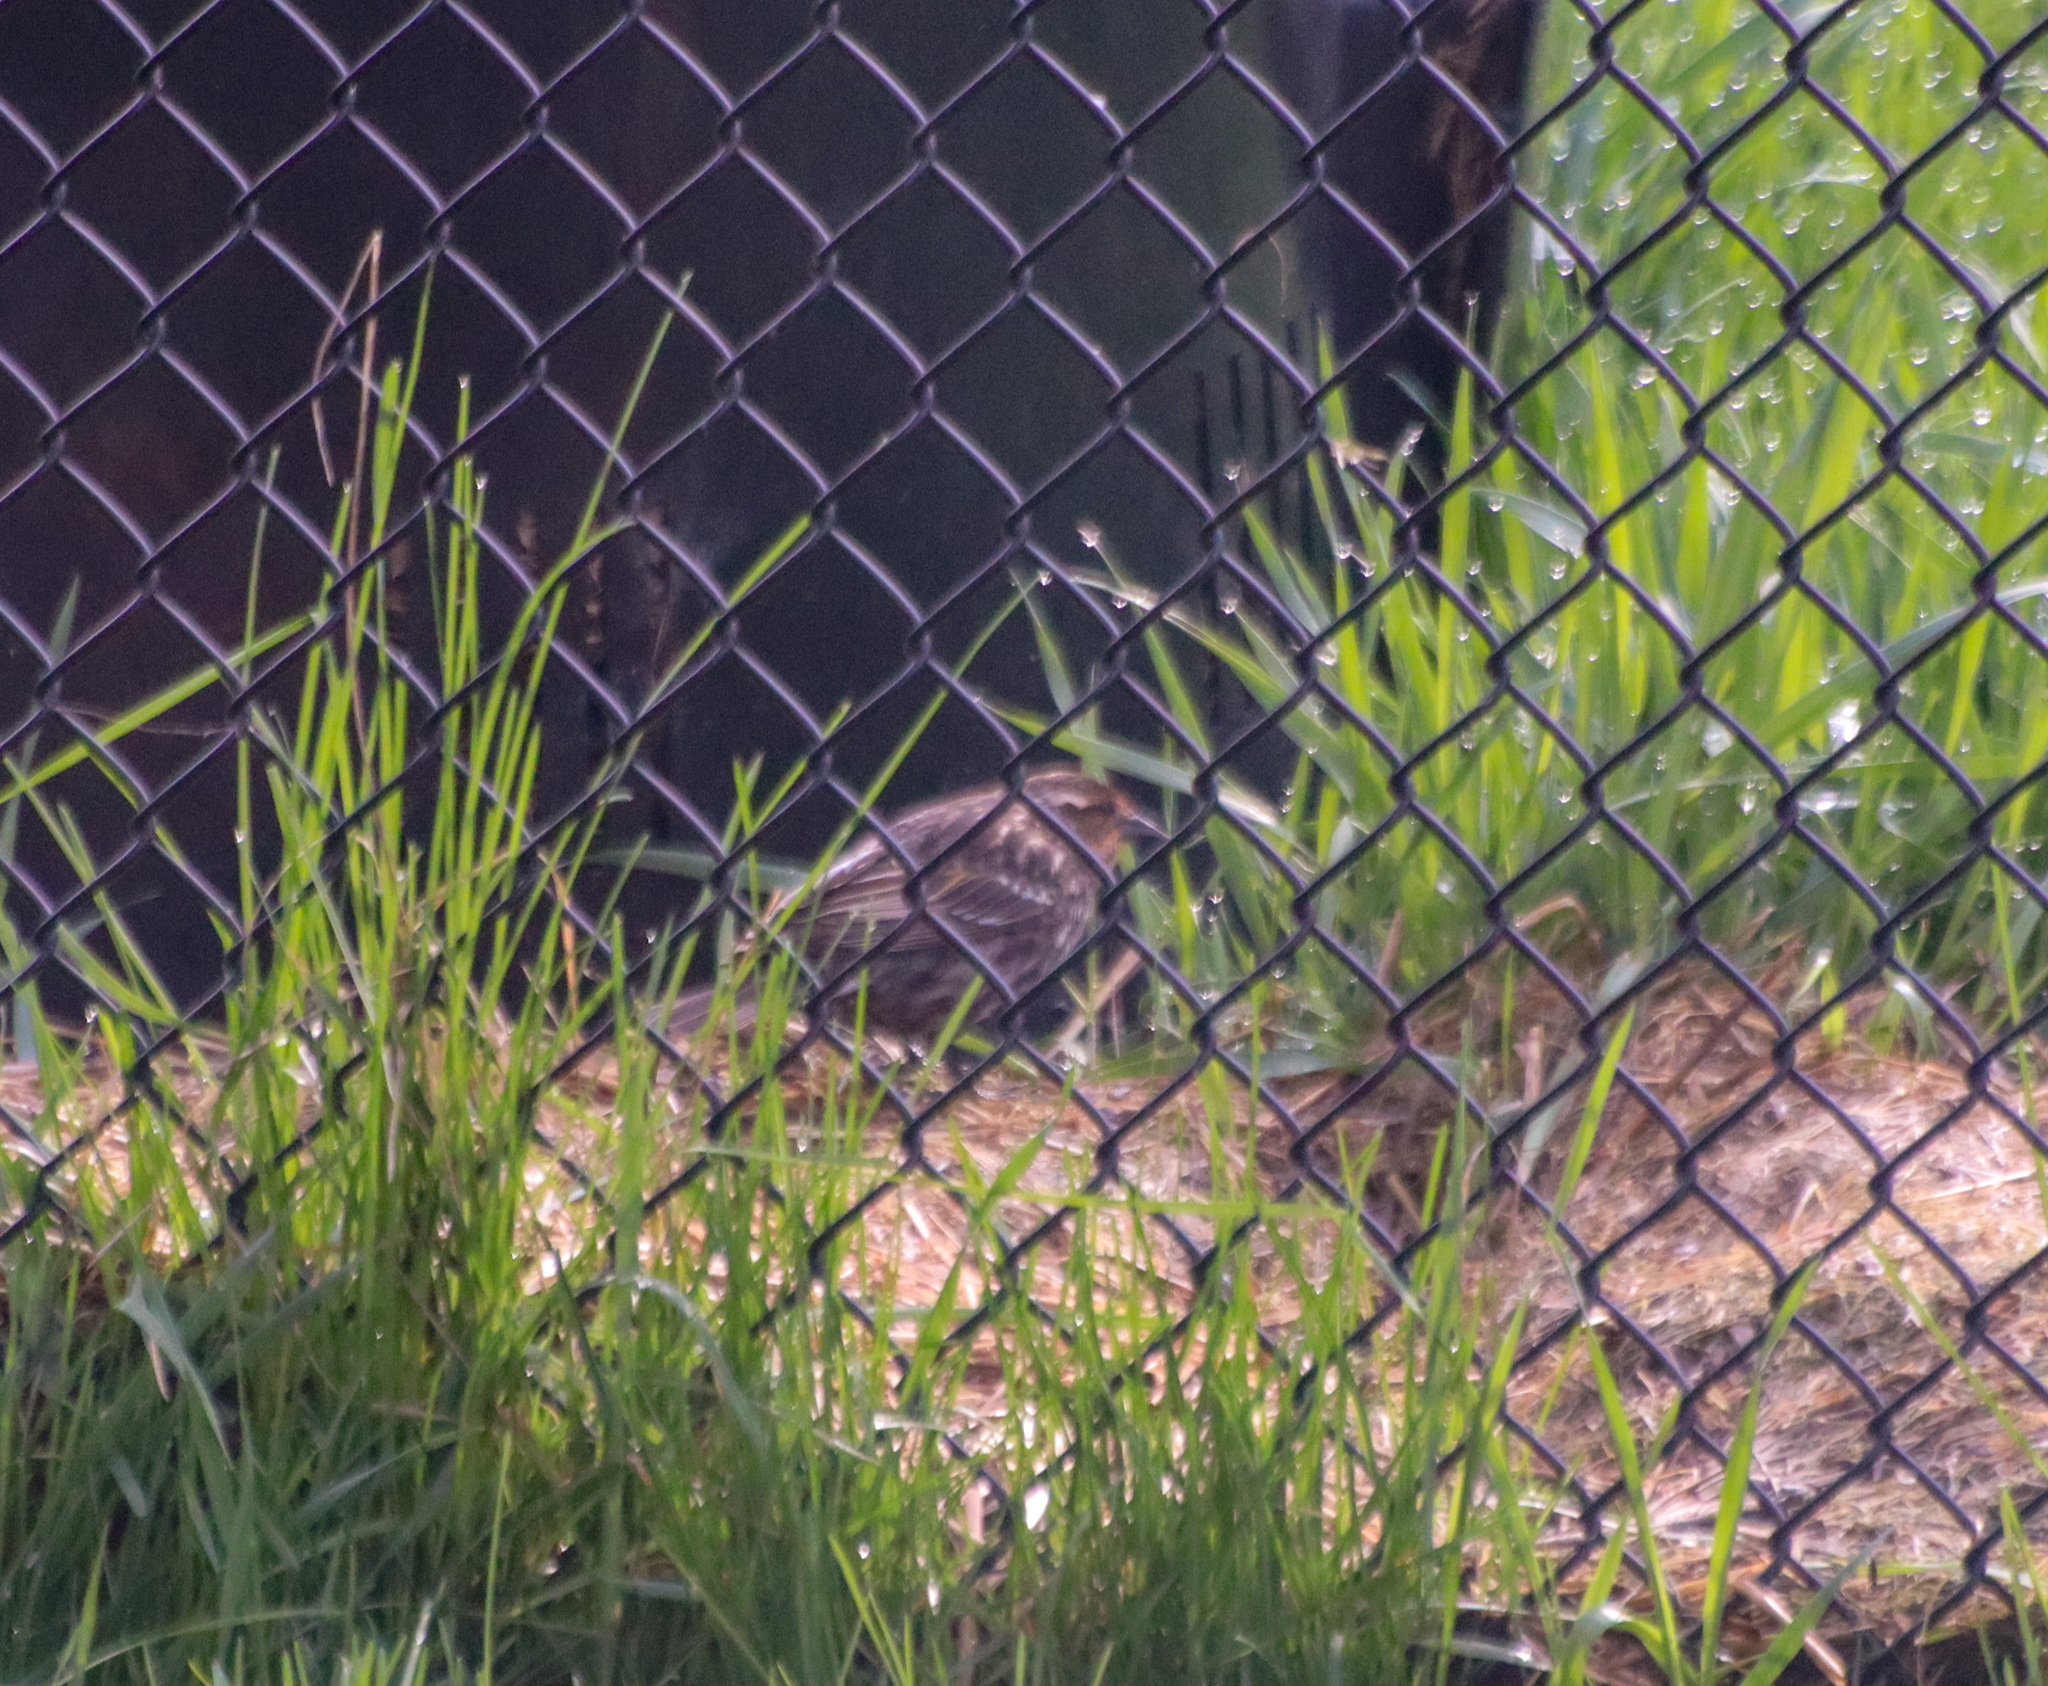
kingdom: Animalia
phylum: Chordata
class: Aves
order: Passeriformes
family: Icteridae
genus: Agelaius
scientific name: Agelaius phoeniceus
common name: Red-winged blackbird
